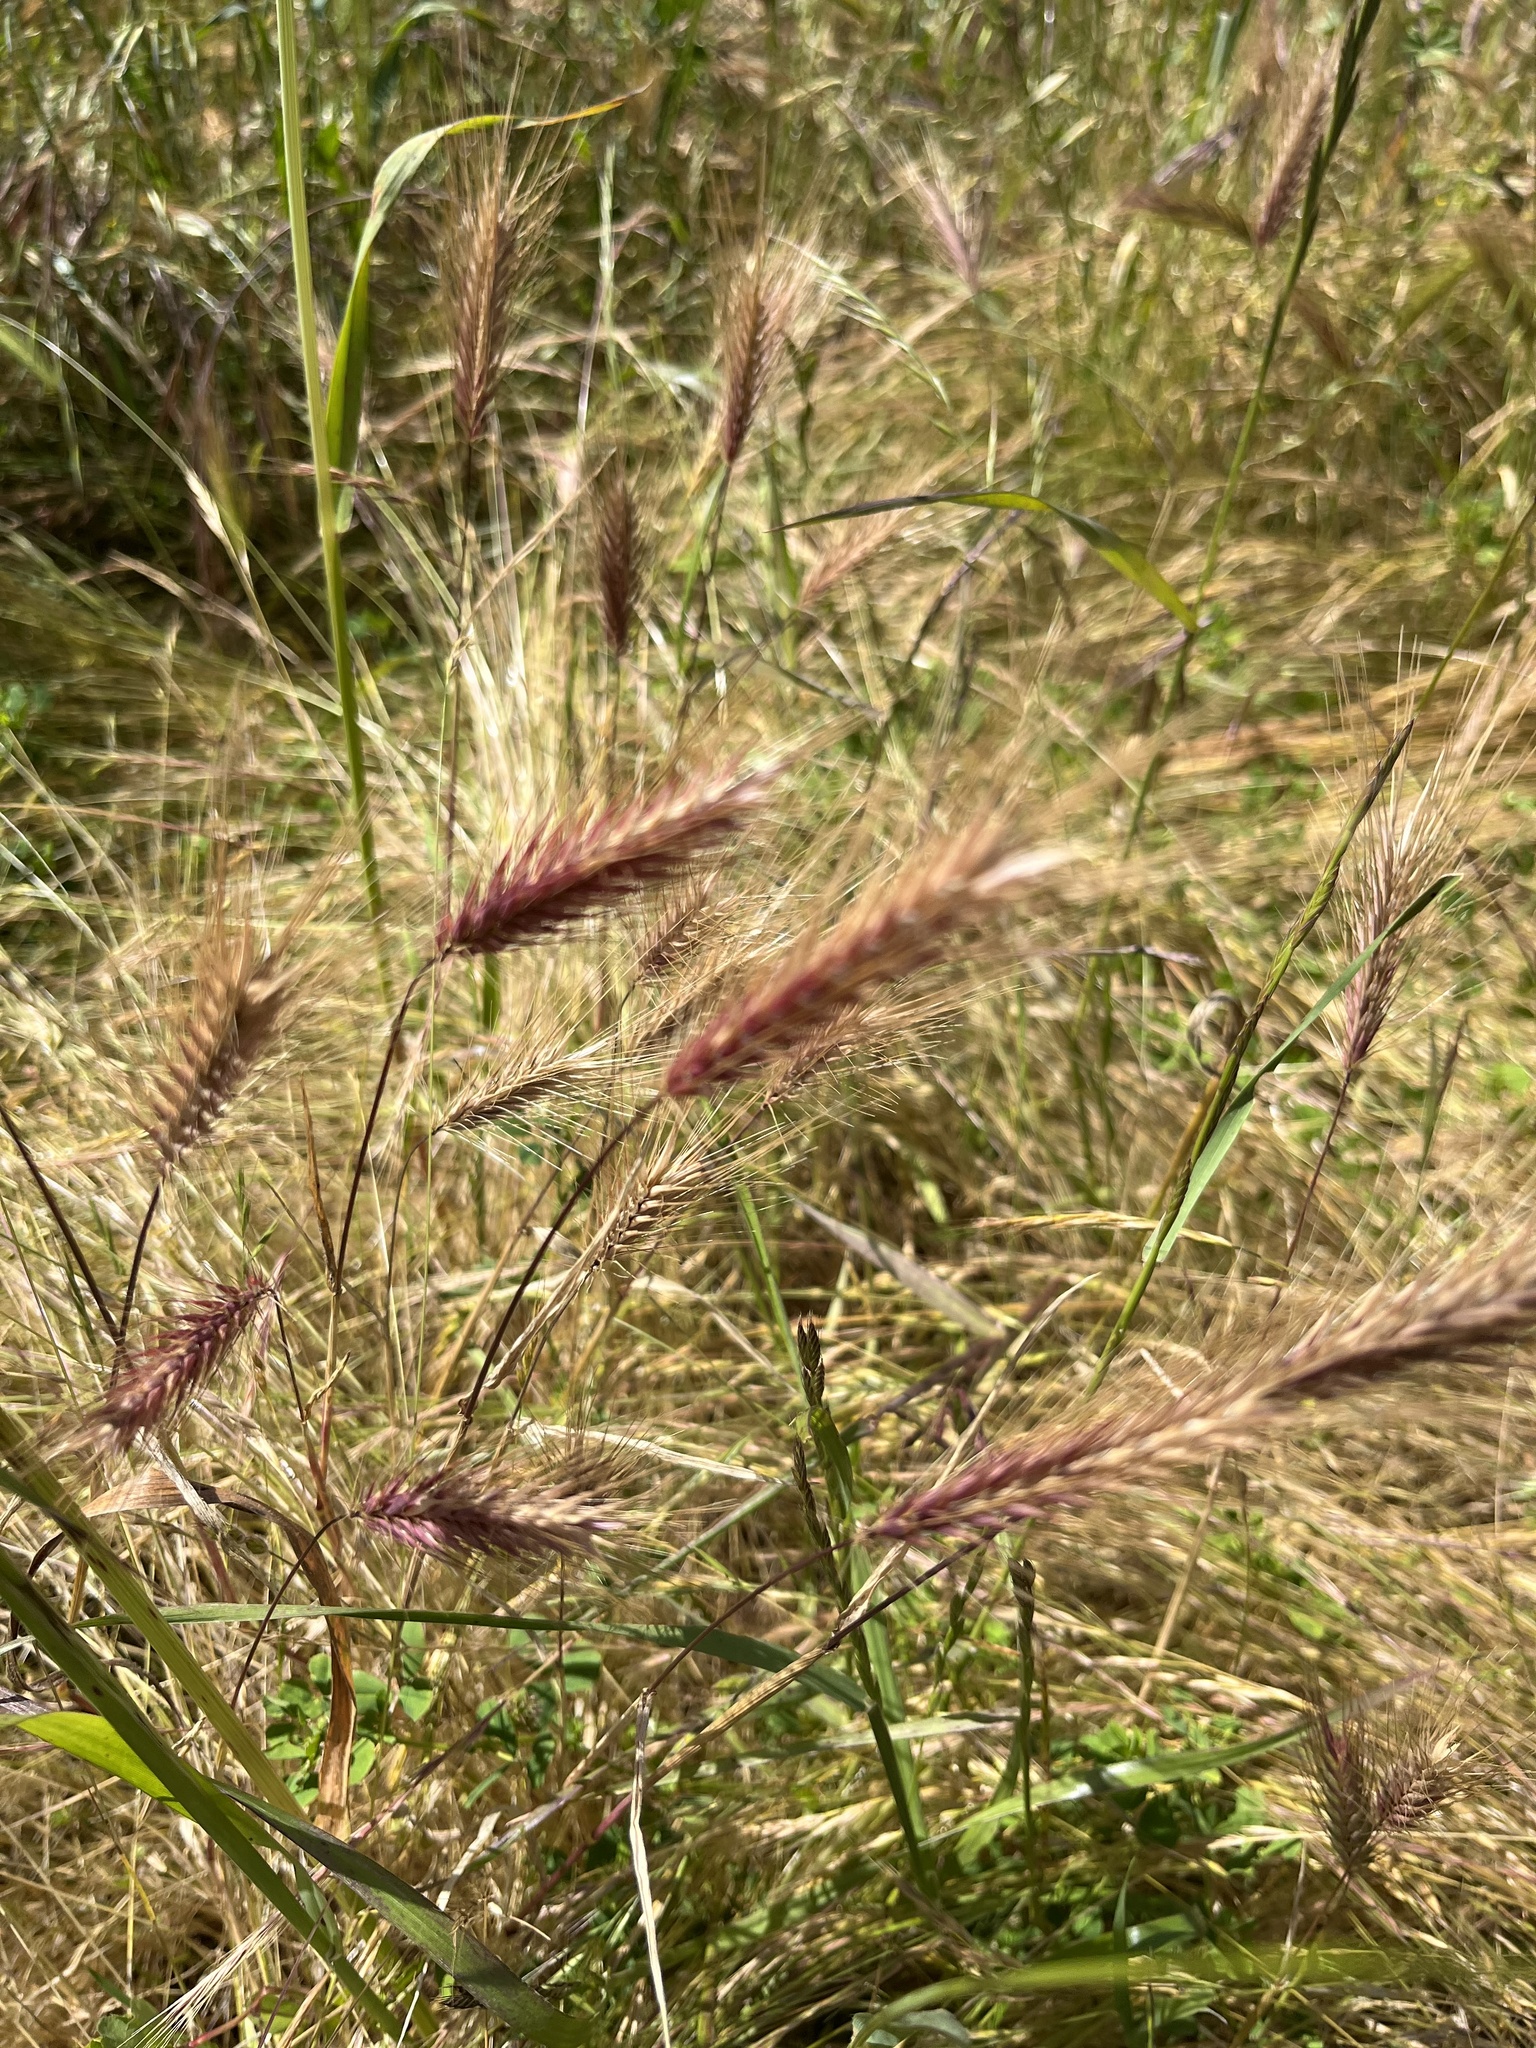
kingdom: Plantae
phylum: Tracheophyta
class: Liliopsida
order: Poales
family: Poaceae
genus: Hordeum
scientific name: Hordeum murinum
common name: Wall barley
